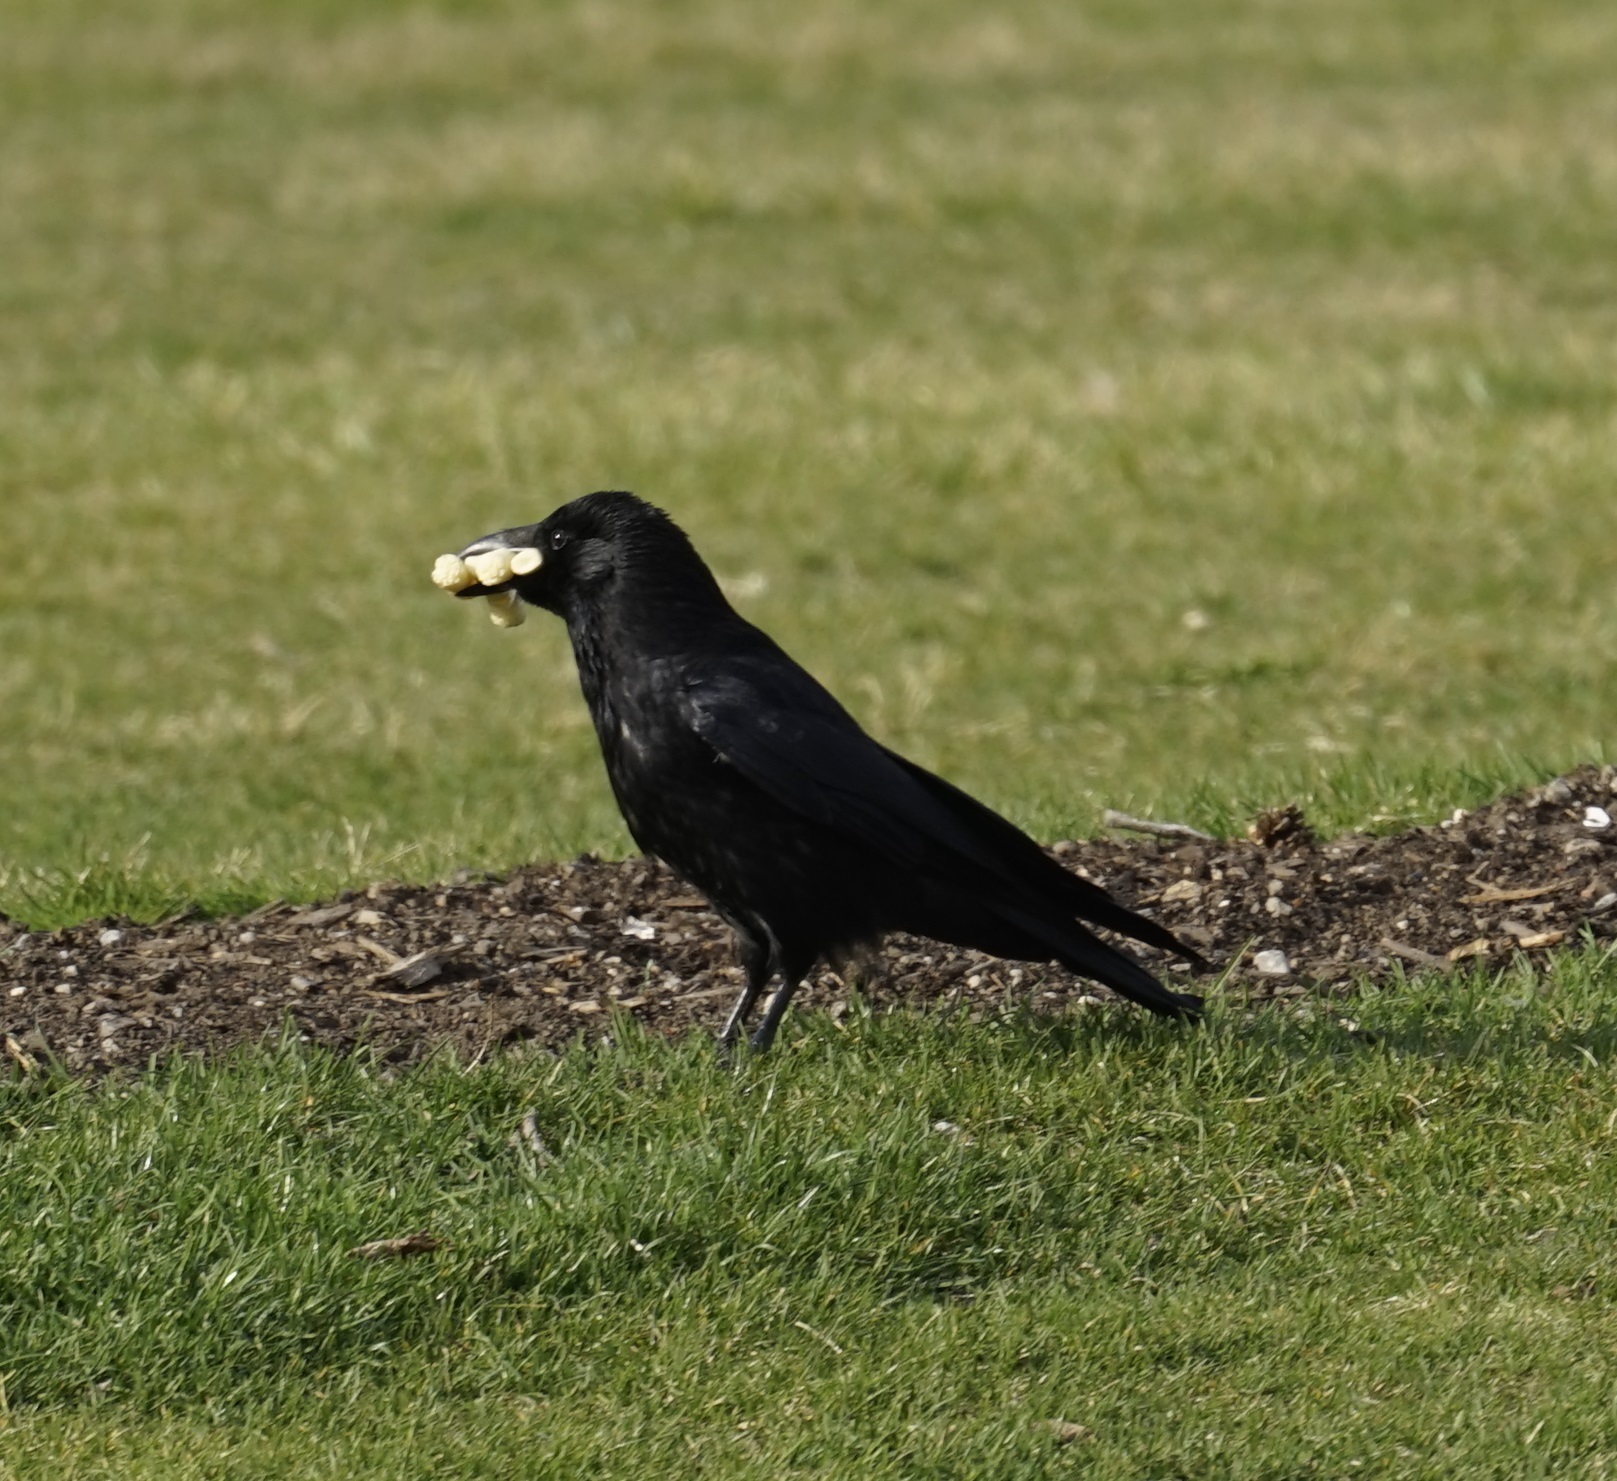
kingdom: Animalia
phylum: Chordata
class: Aves
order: Passeriformes
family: Corvidae
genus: Corvus
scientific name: Corvus corone
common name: Carrion crow
